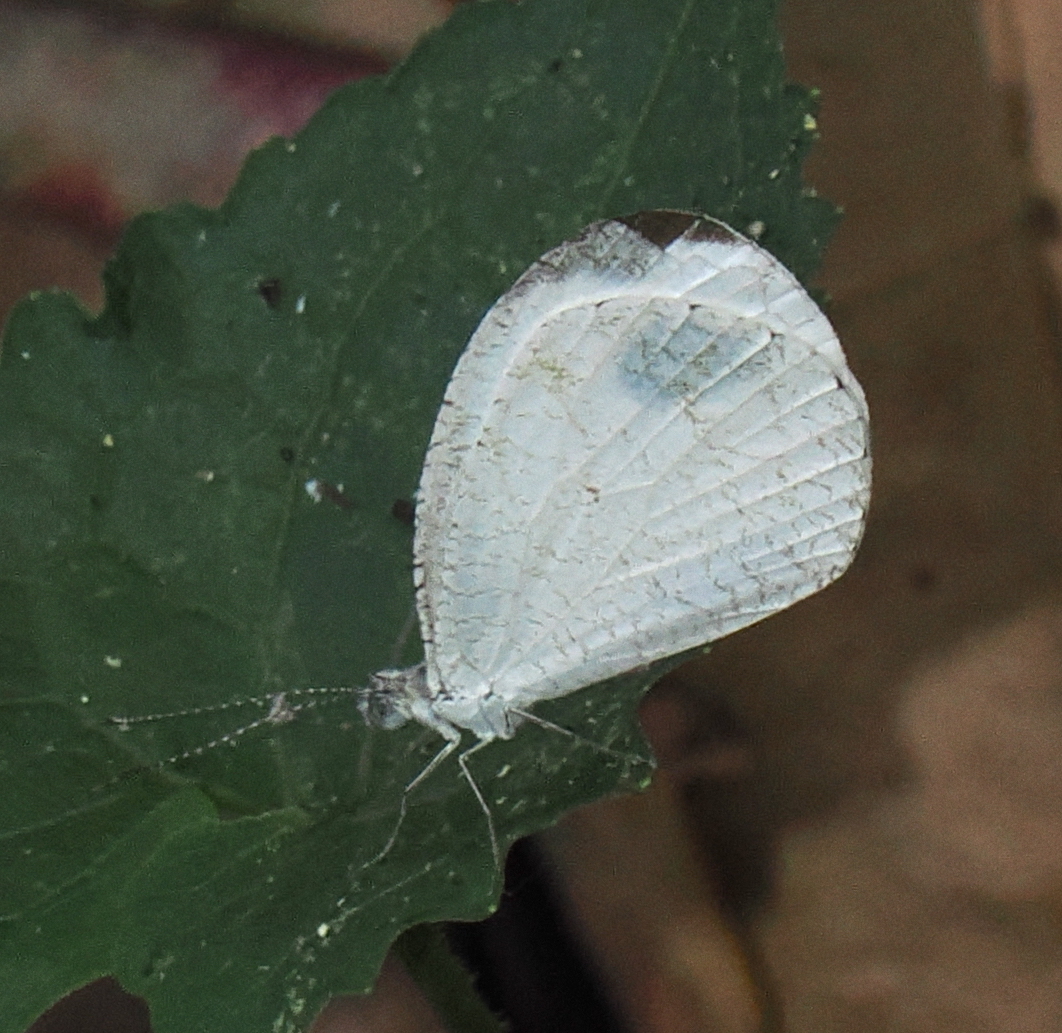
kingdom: Animalia
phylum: Arthropoda
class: Insecta
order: Lepidoptera
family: Pieridae
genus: Leptosia
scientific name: Leptosia nina
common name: Psyche
